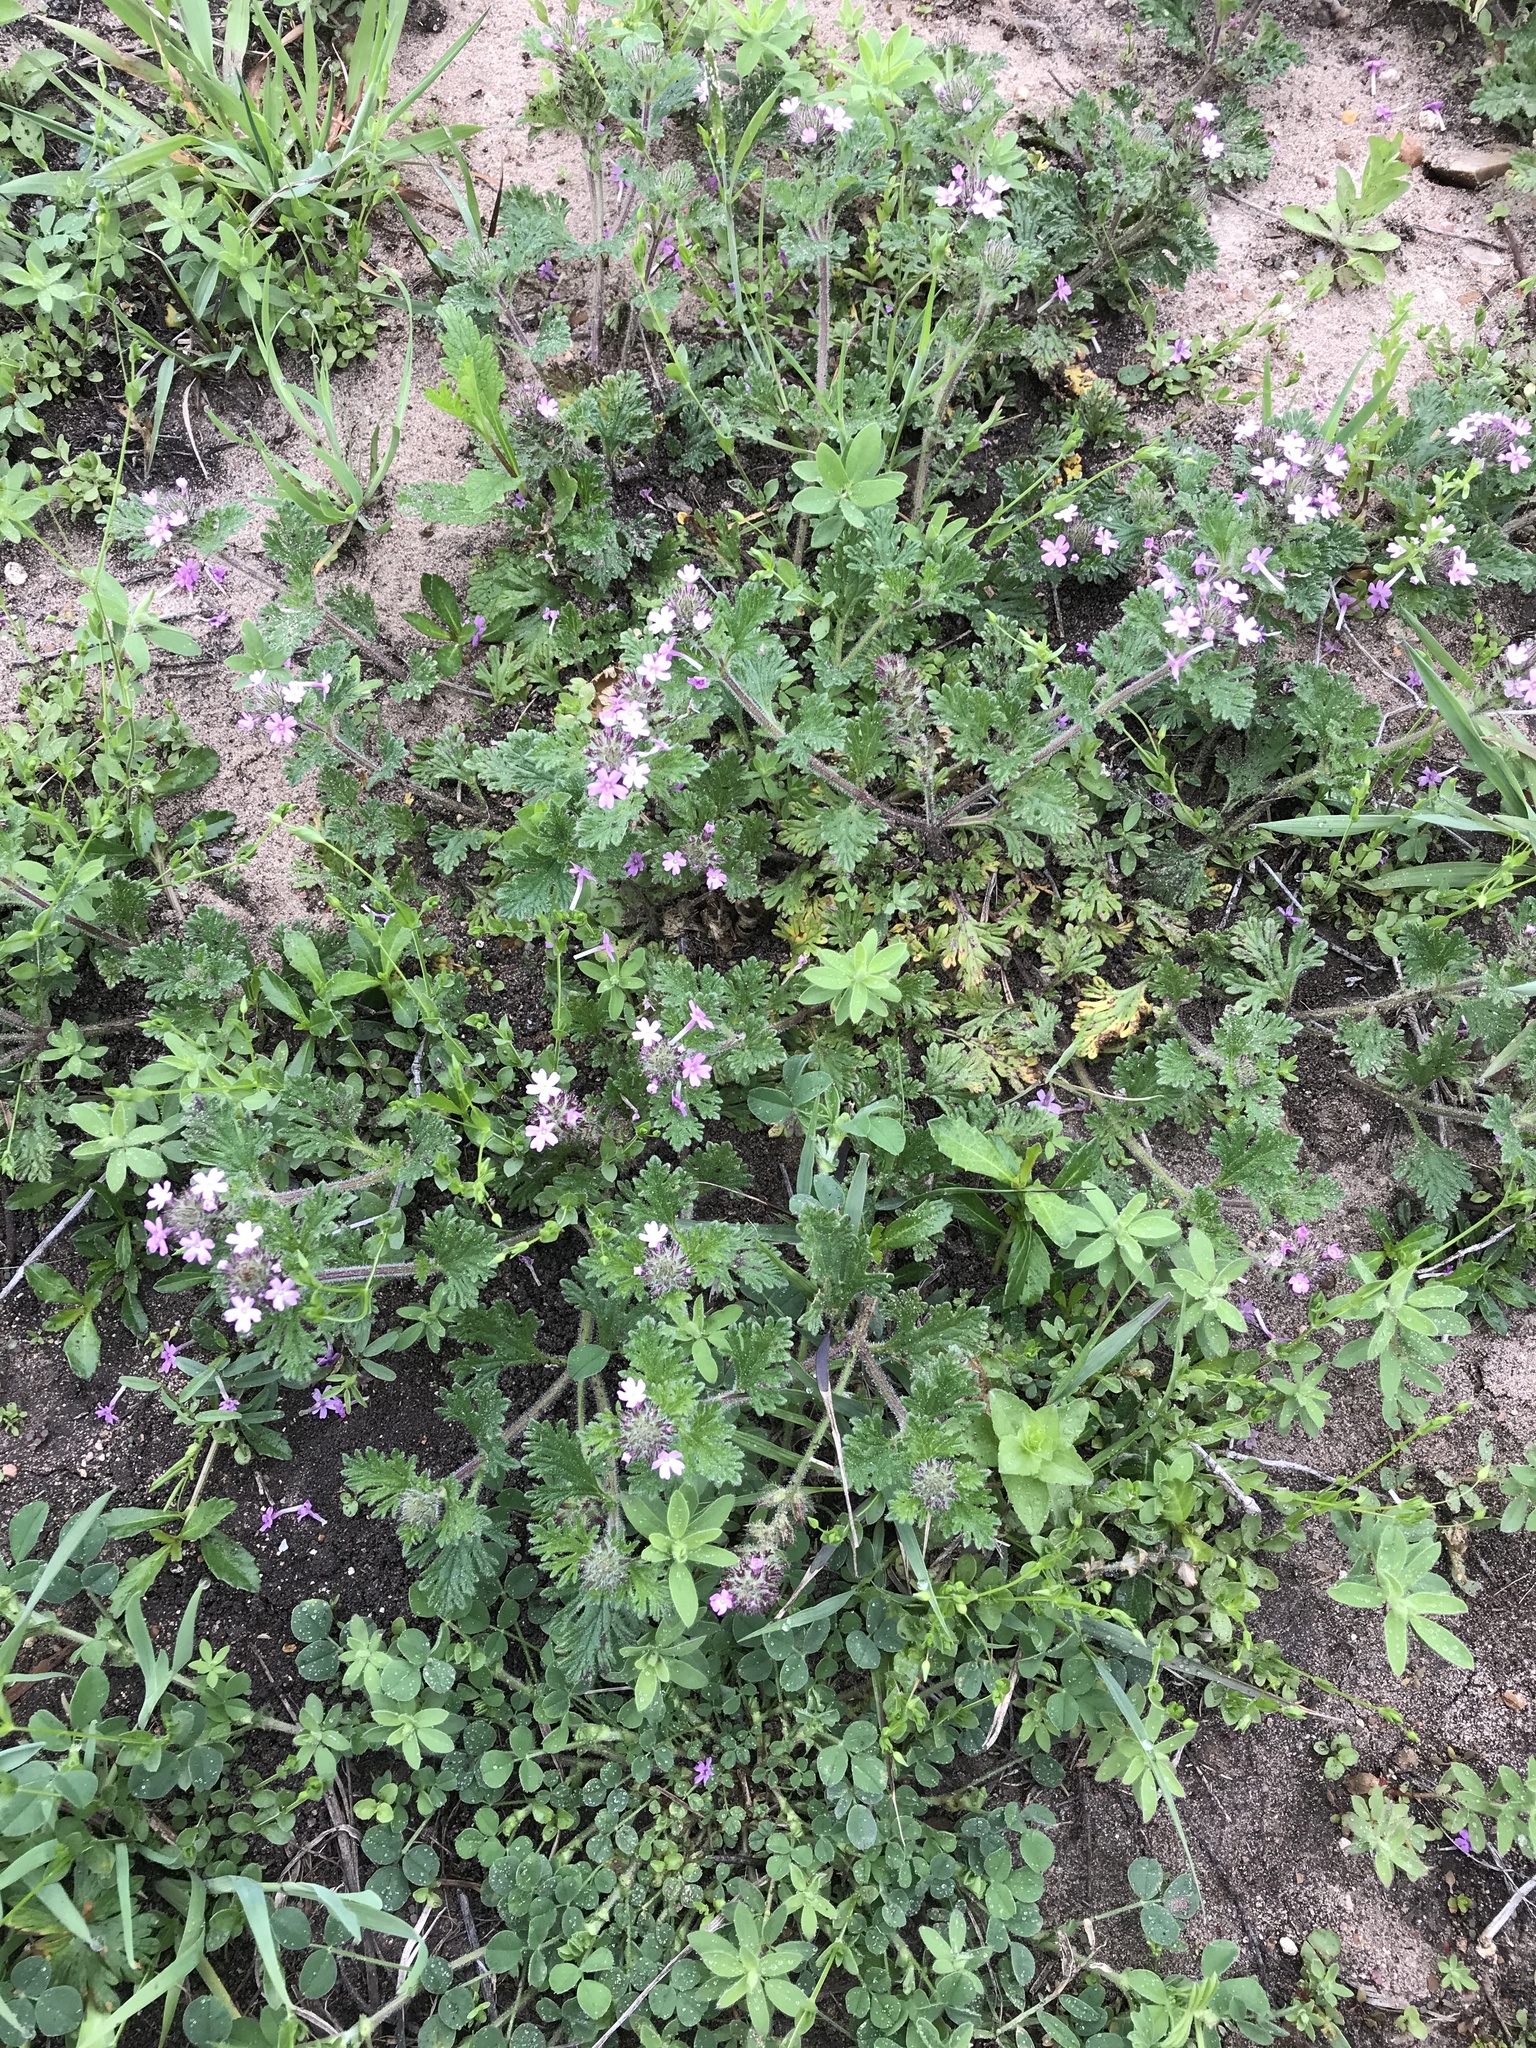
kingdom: Plantae
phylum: Tracheophyta
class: Magnoliopsida
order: Lamiales
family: Verbenaceae
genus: Verbena
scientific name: Verbena pumila
